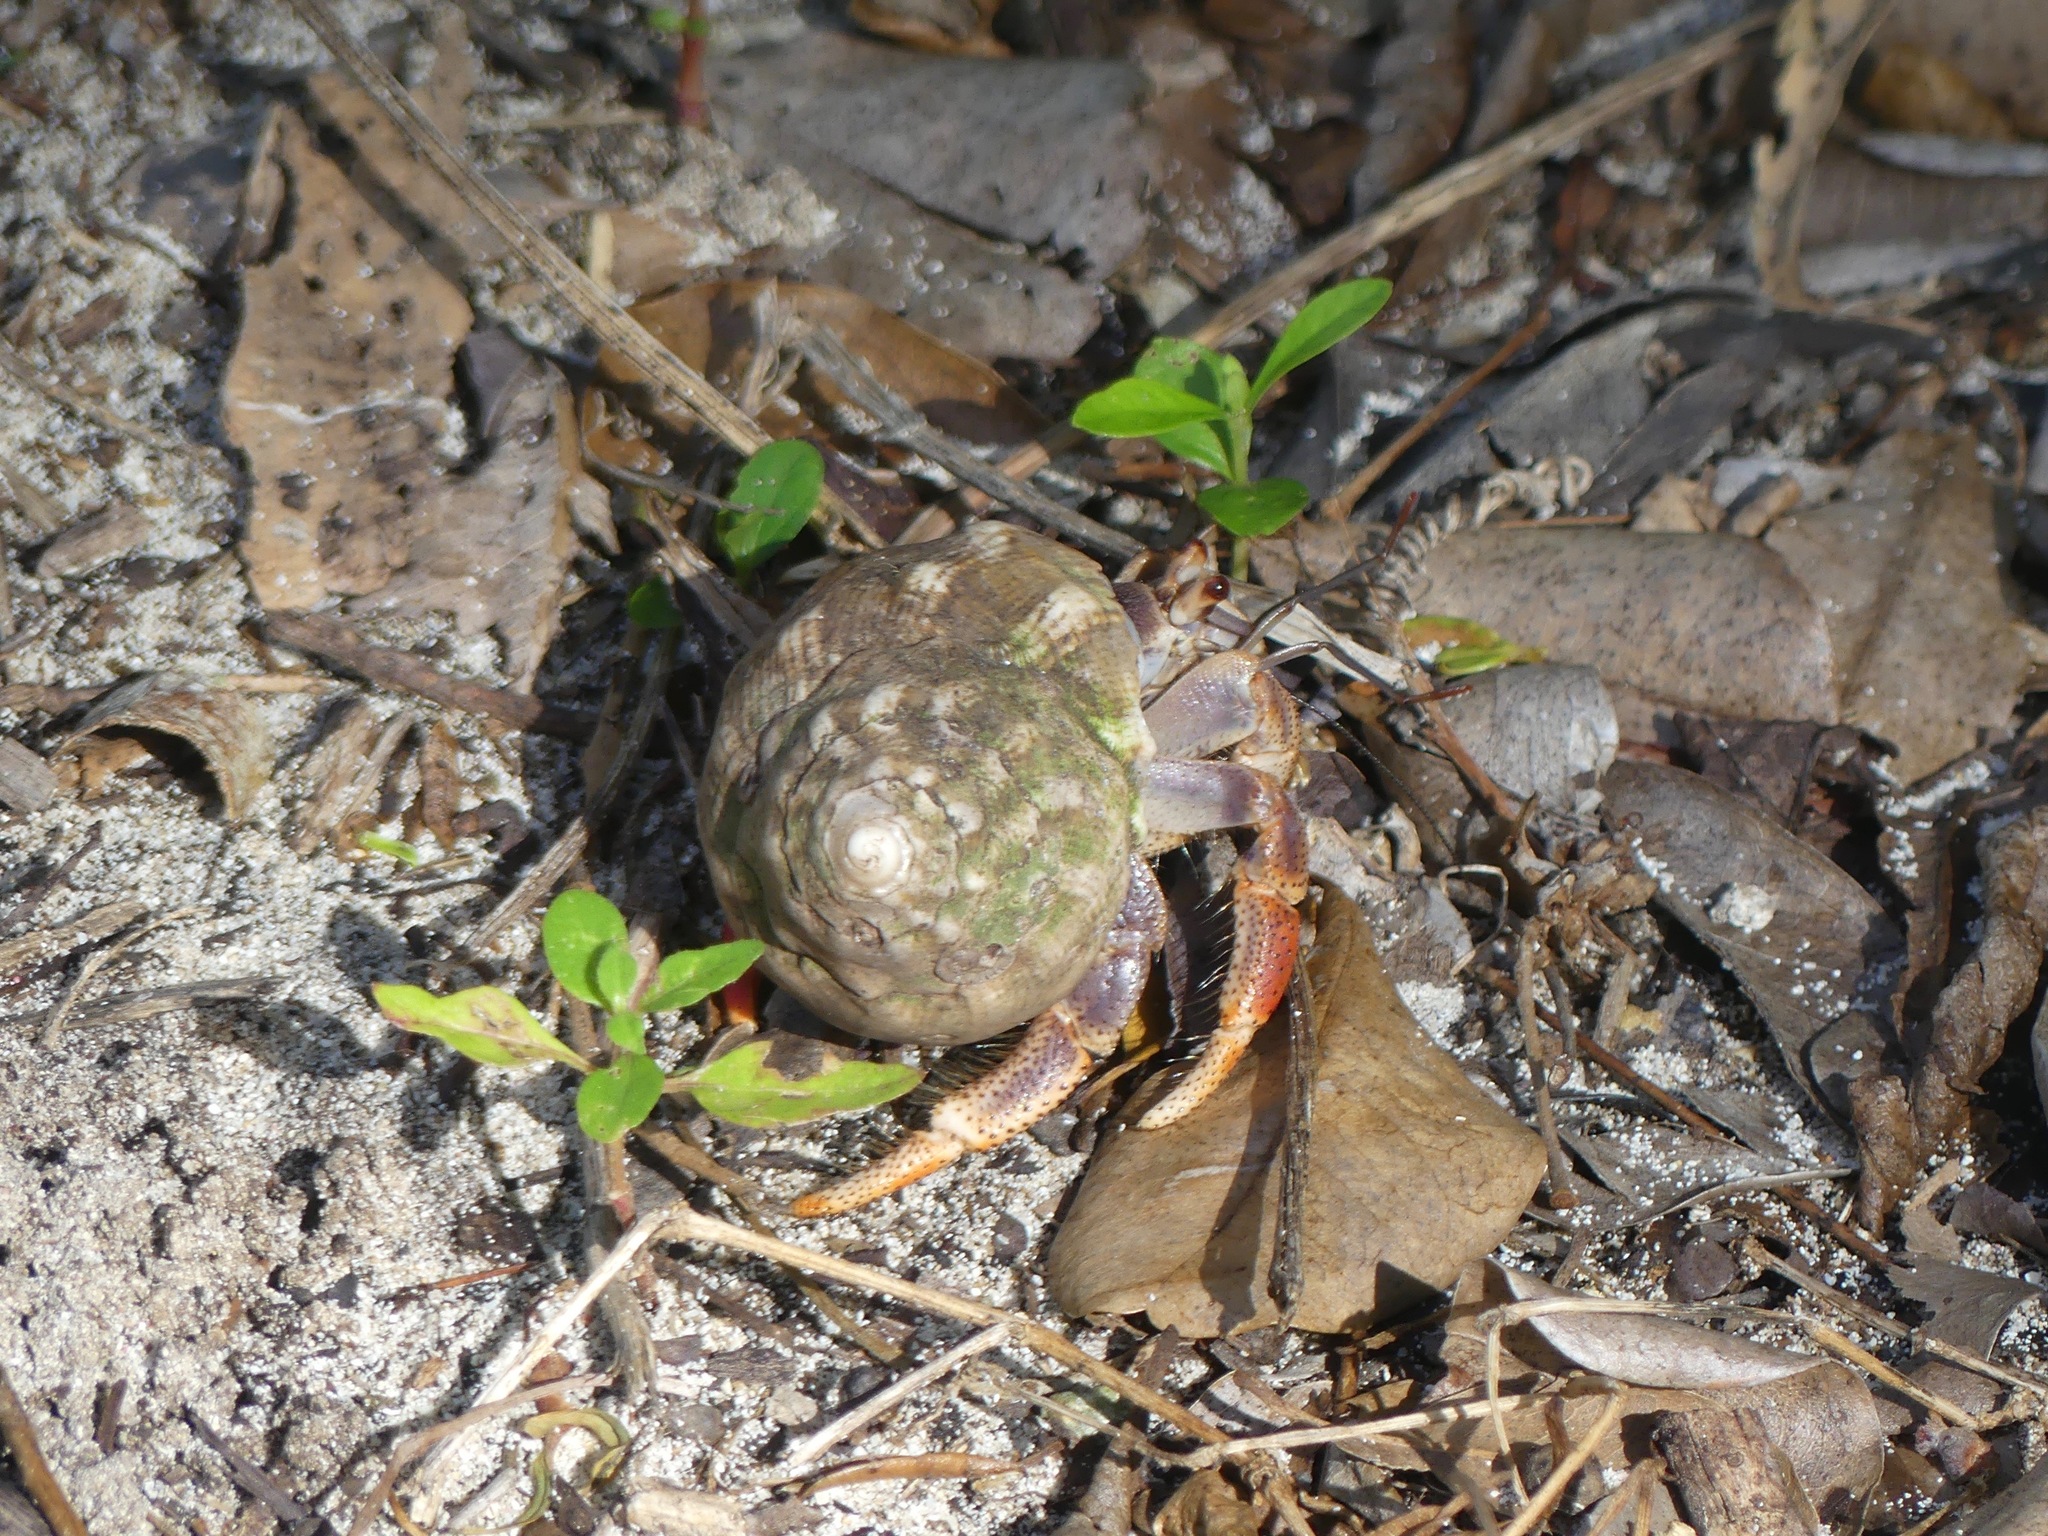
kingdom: Animalia
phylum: Arthropoda
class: Malacostraca
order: Decapoda
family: Coenobitidae
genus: Coenobita
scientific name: Coenobita clypeatus
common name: Caribbean hermit crab
